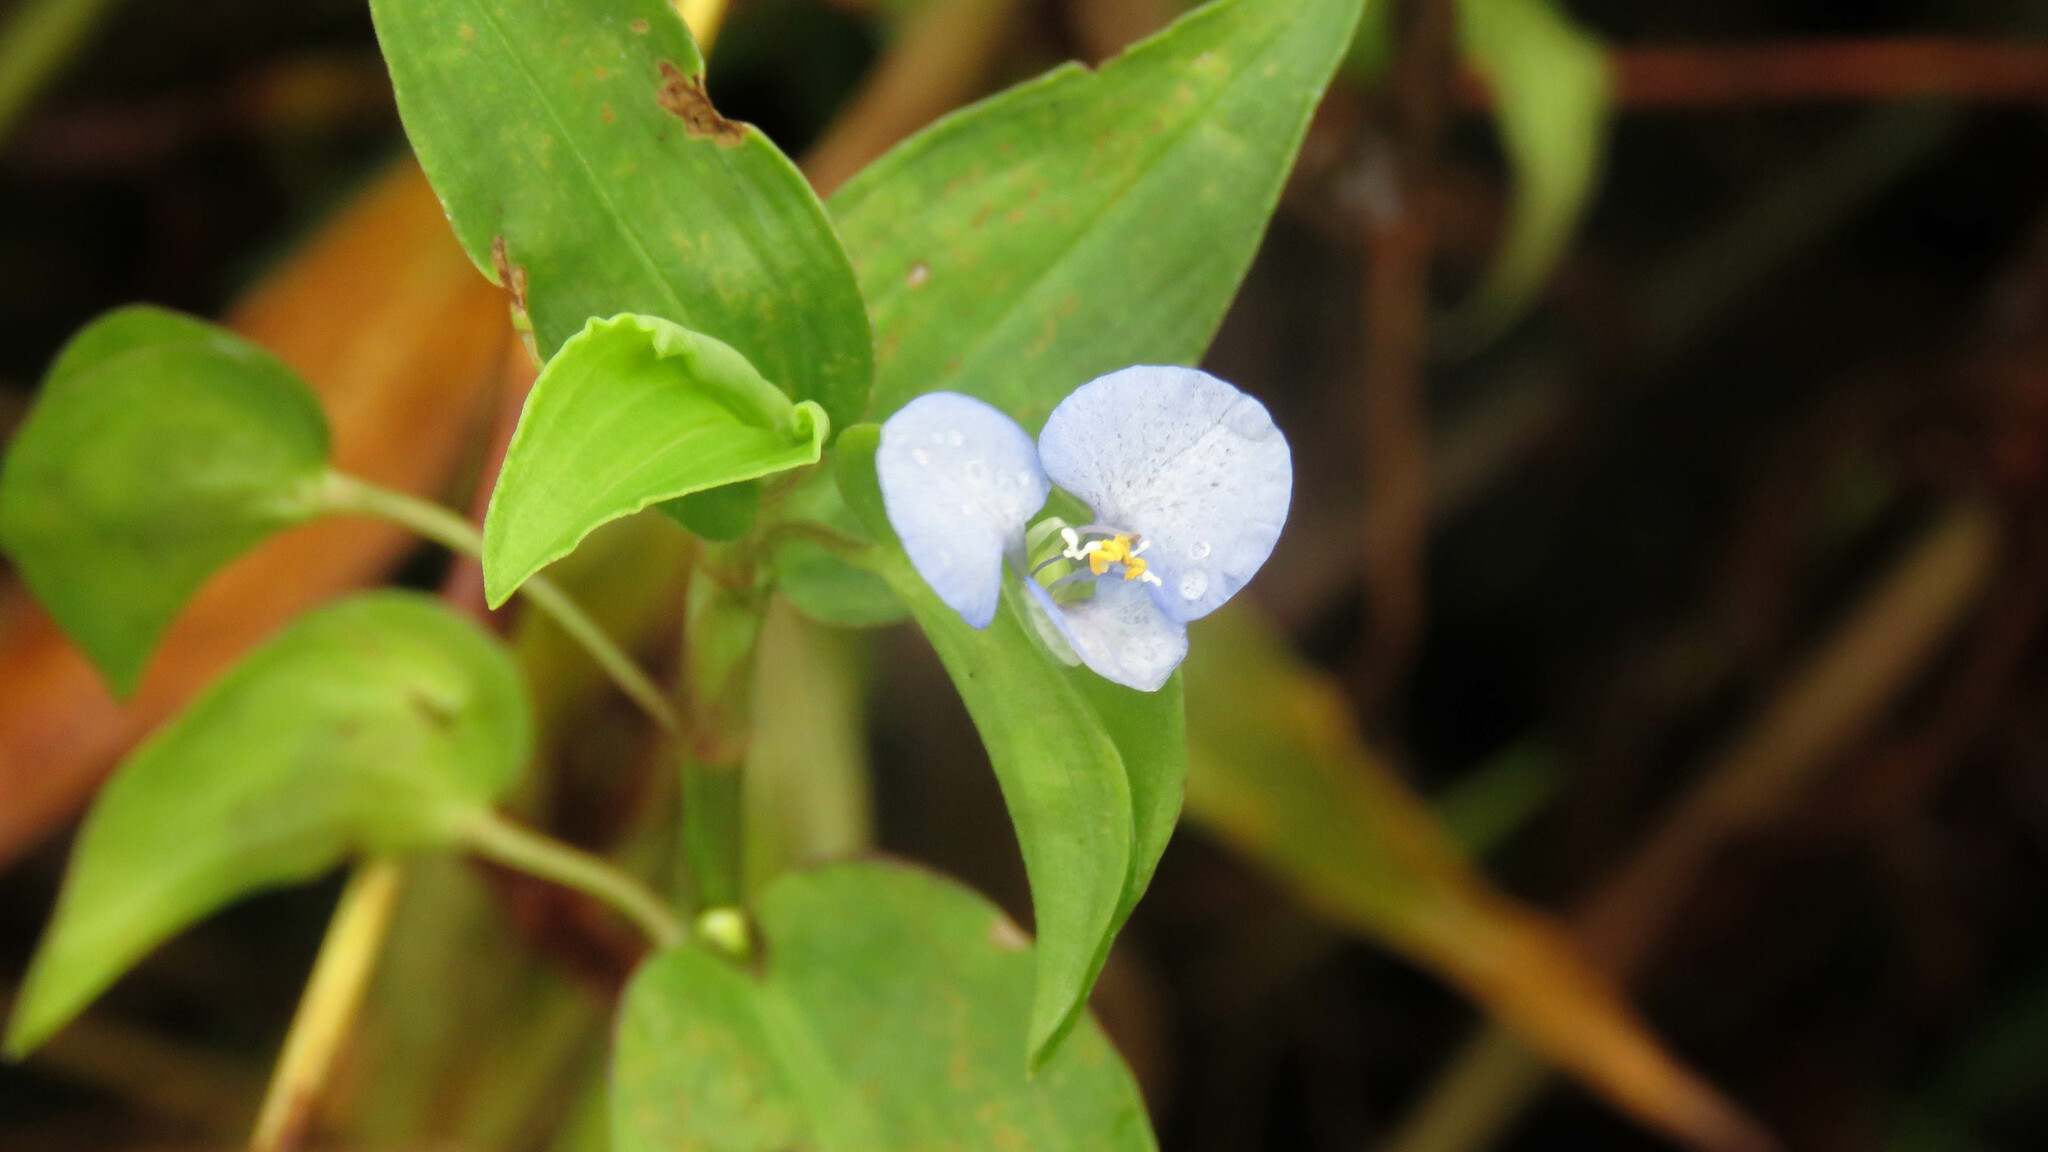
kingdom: Plantae
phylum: Tracheophyta
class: Liliopsida
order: Commelinales
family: Commelinaceae
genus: Commelina
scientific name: Commelina diffusa
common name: Climbing dayflower
